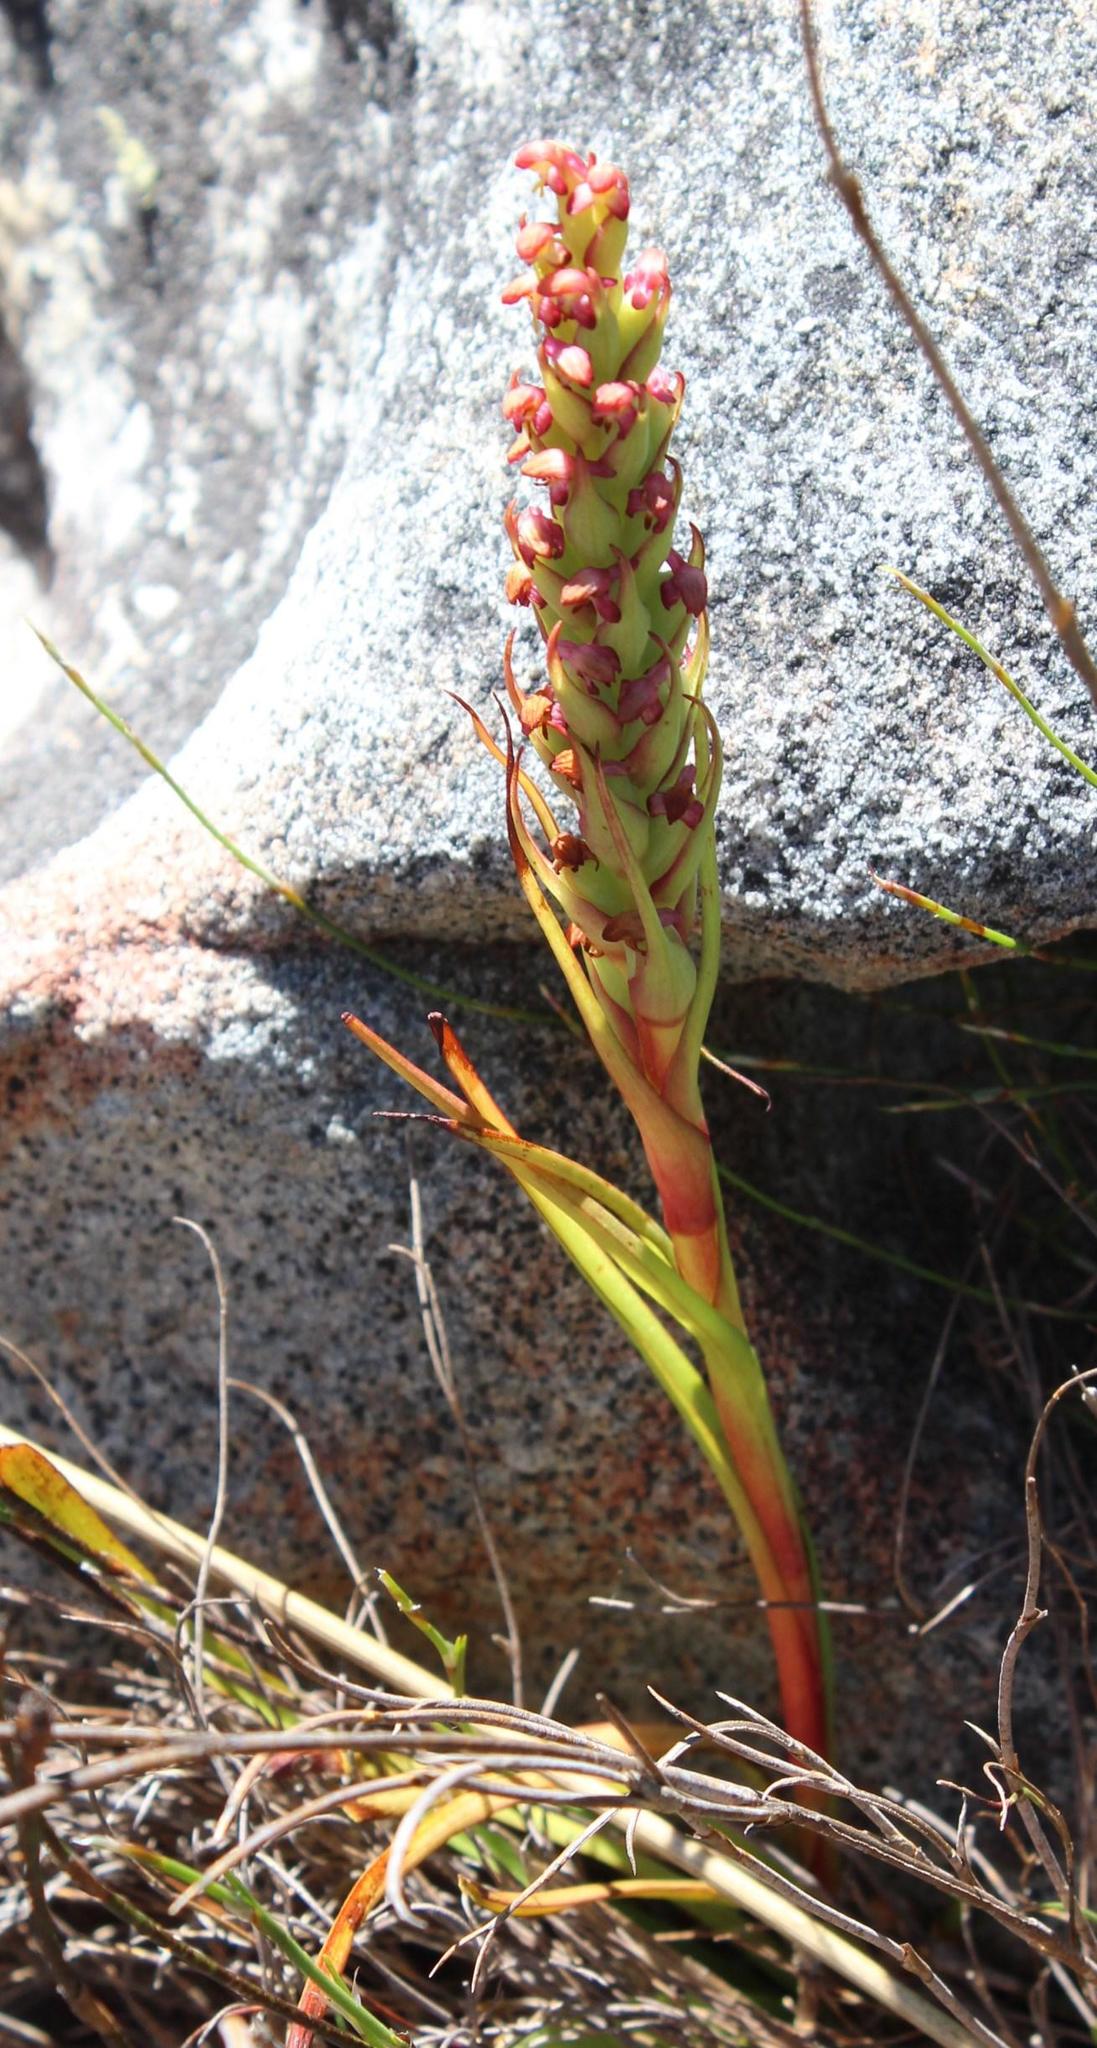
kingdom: Plantae
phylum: Tracheophyta
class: Liliopsida
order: Asparagales
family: Orchidaceae
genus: Disa
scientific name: Disa bracteata
